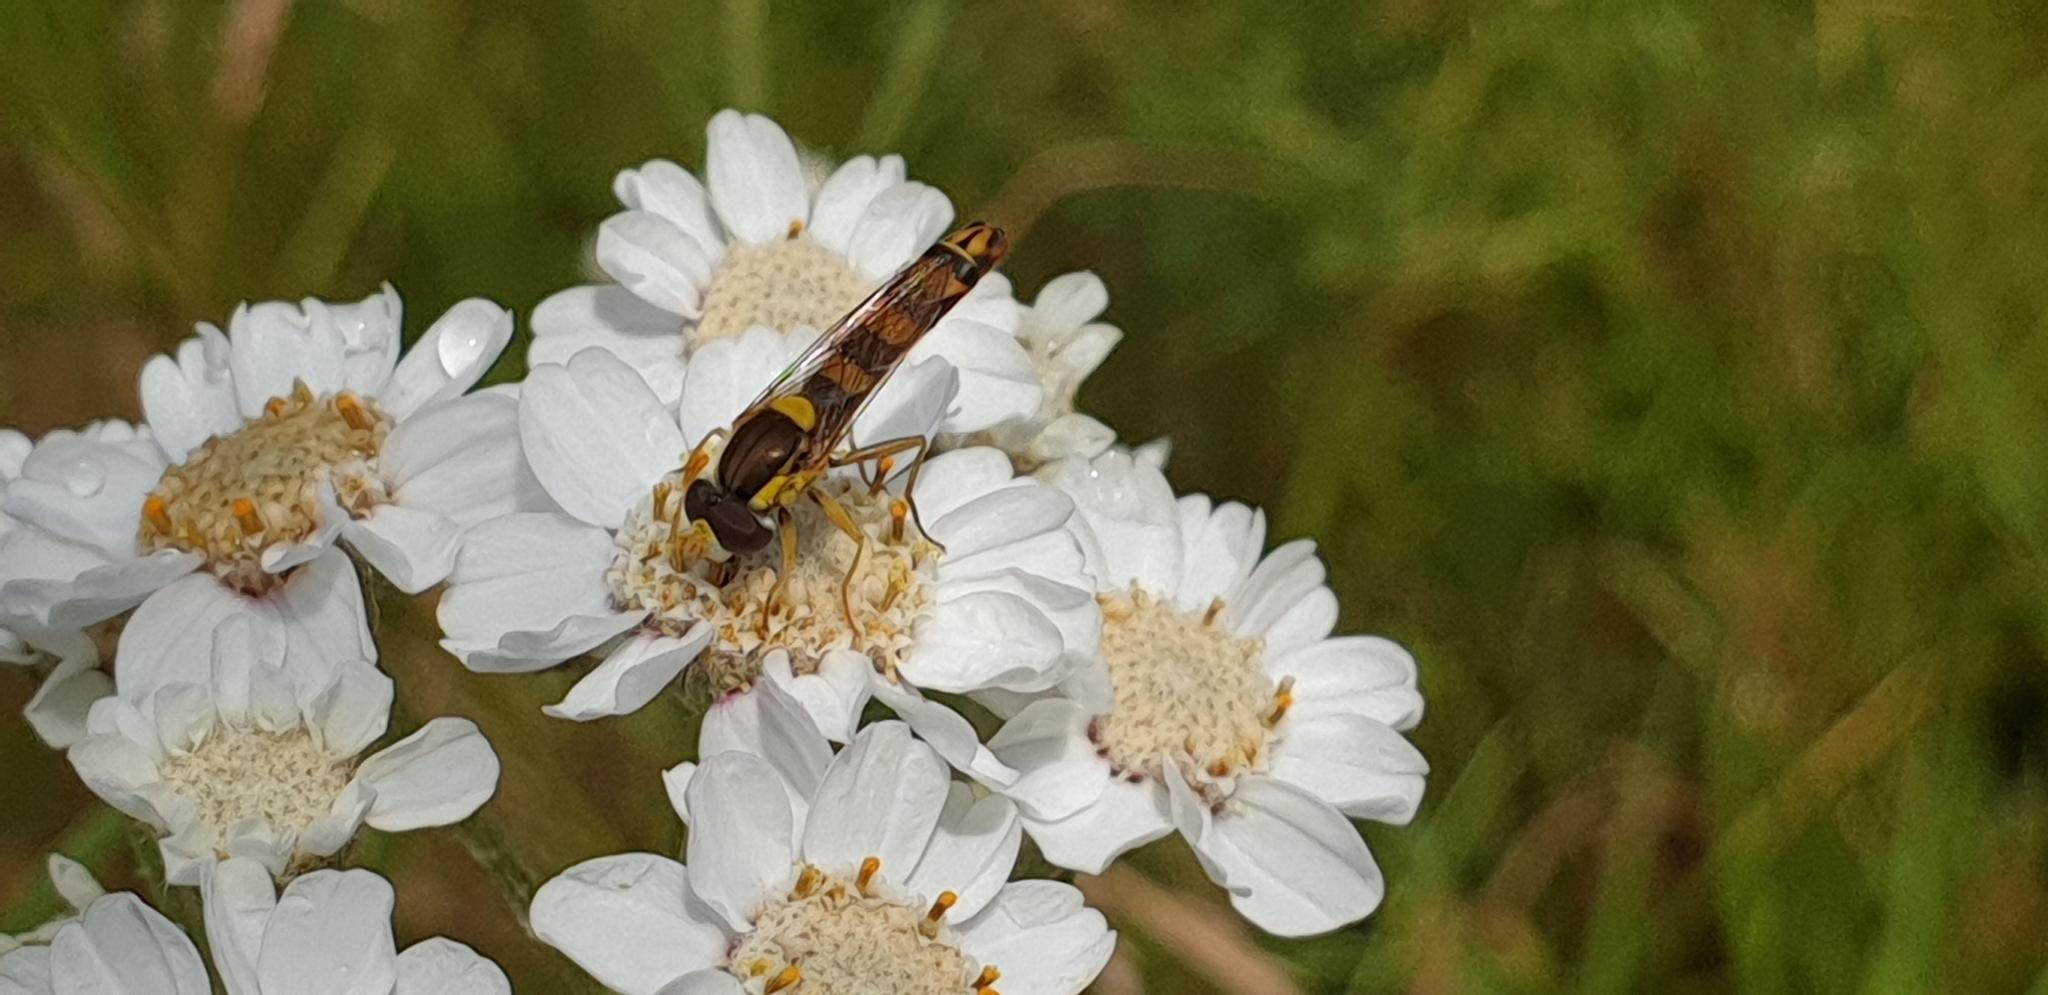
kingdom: Animalia
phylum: Arthropoda
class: Insecta
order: Diptera
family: Syrphidae
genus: Sphaerophoria
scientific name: Sphaerophoria scripta
